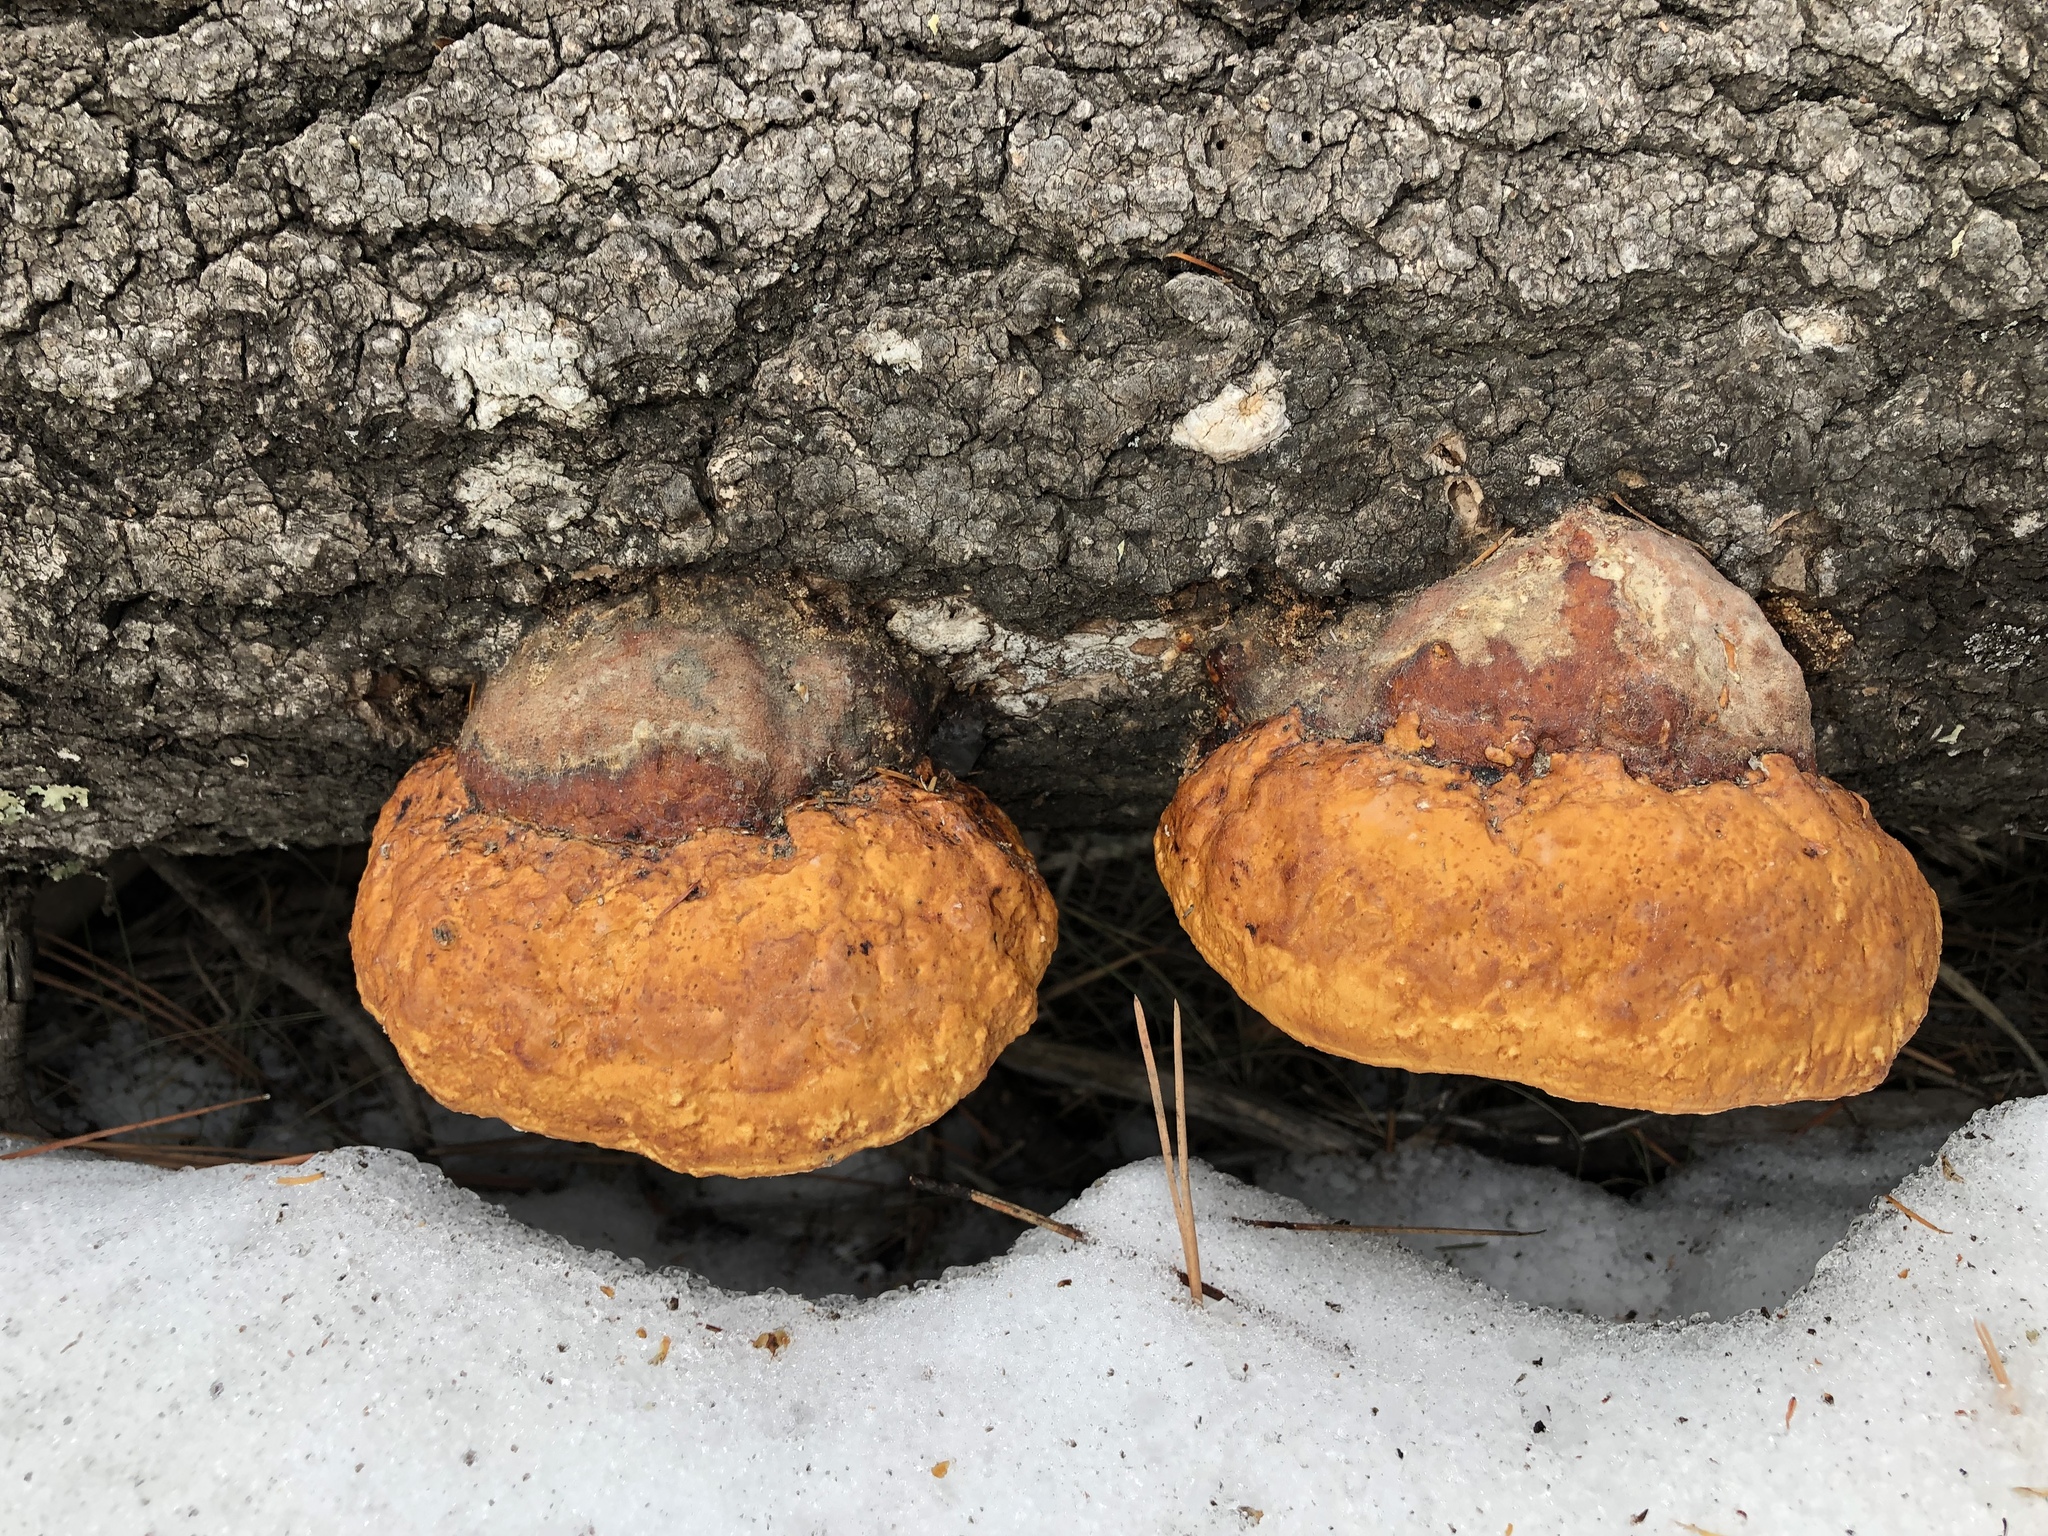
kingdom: Fungi
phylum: Basidiomycota
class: Agaricomycetes
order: Polyporales
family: Fomitopsidaceae
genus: Fomitopsis
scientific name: Fomitopsis schrenkii
